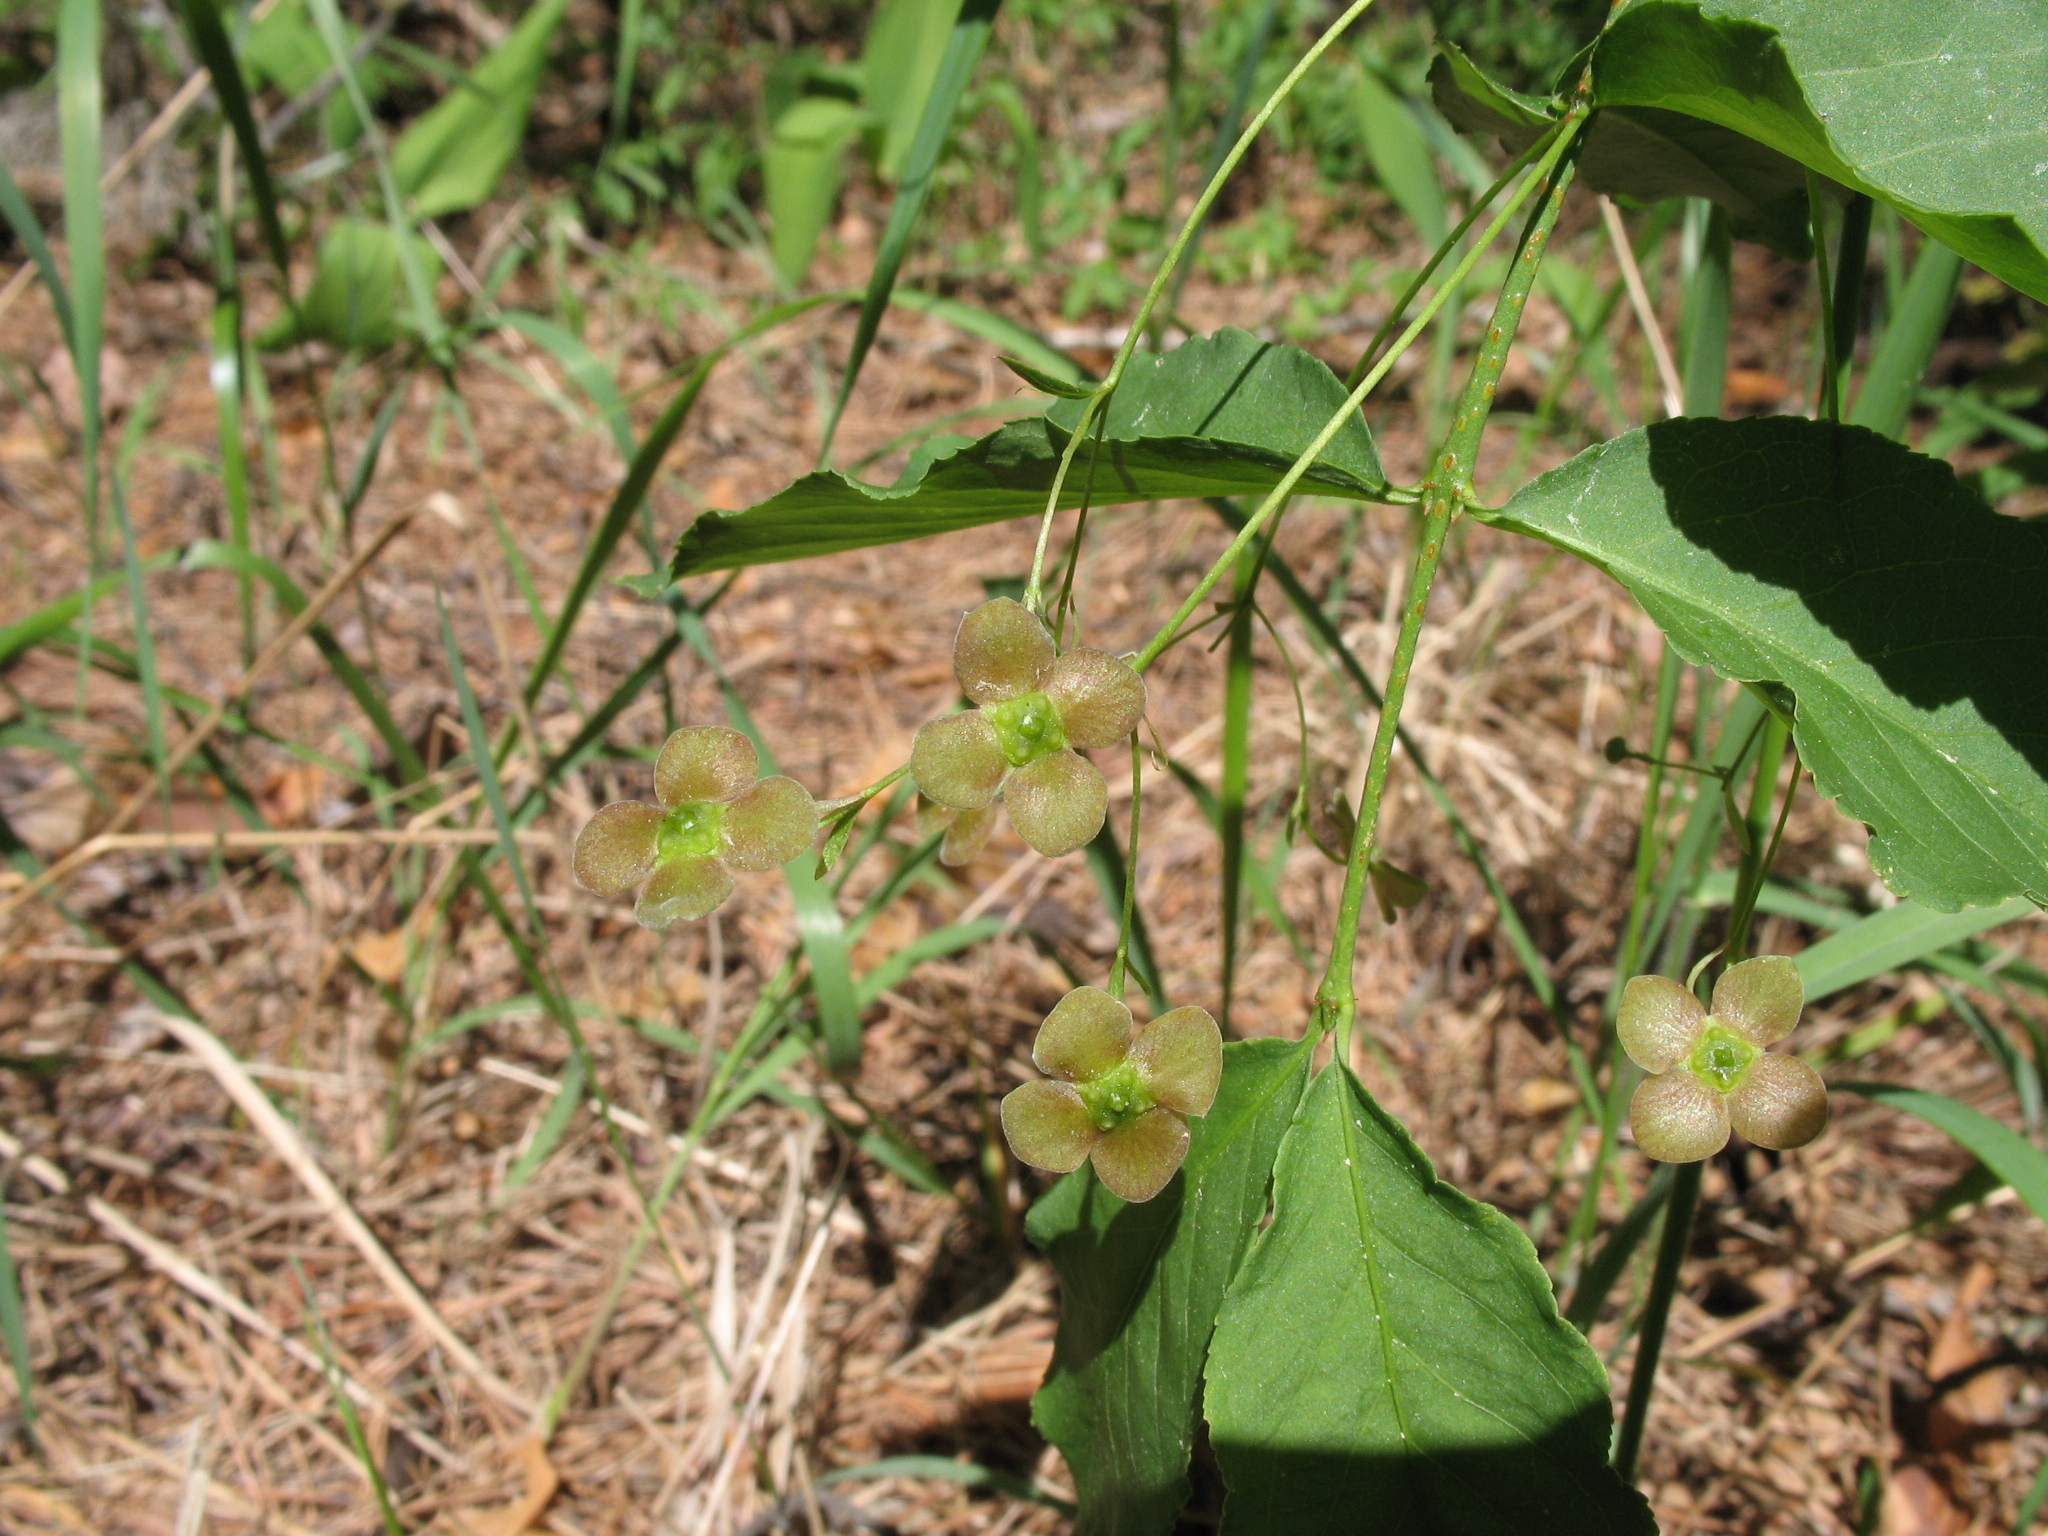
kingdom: Plantae
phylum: Tracheophyta
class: Magnoliopsida
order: Celastrales
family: Celastraceae
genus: Euonymus
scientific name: Euonymus verrucosus
